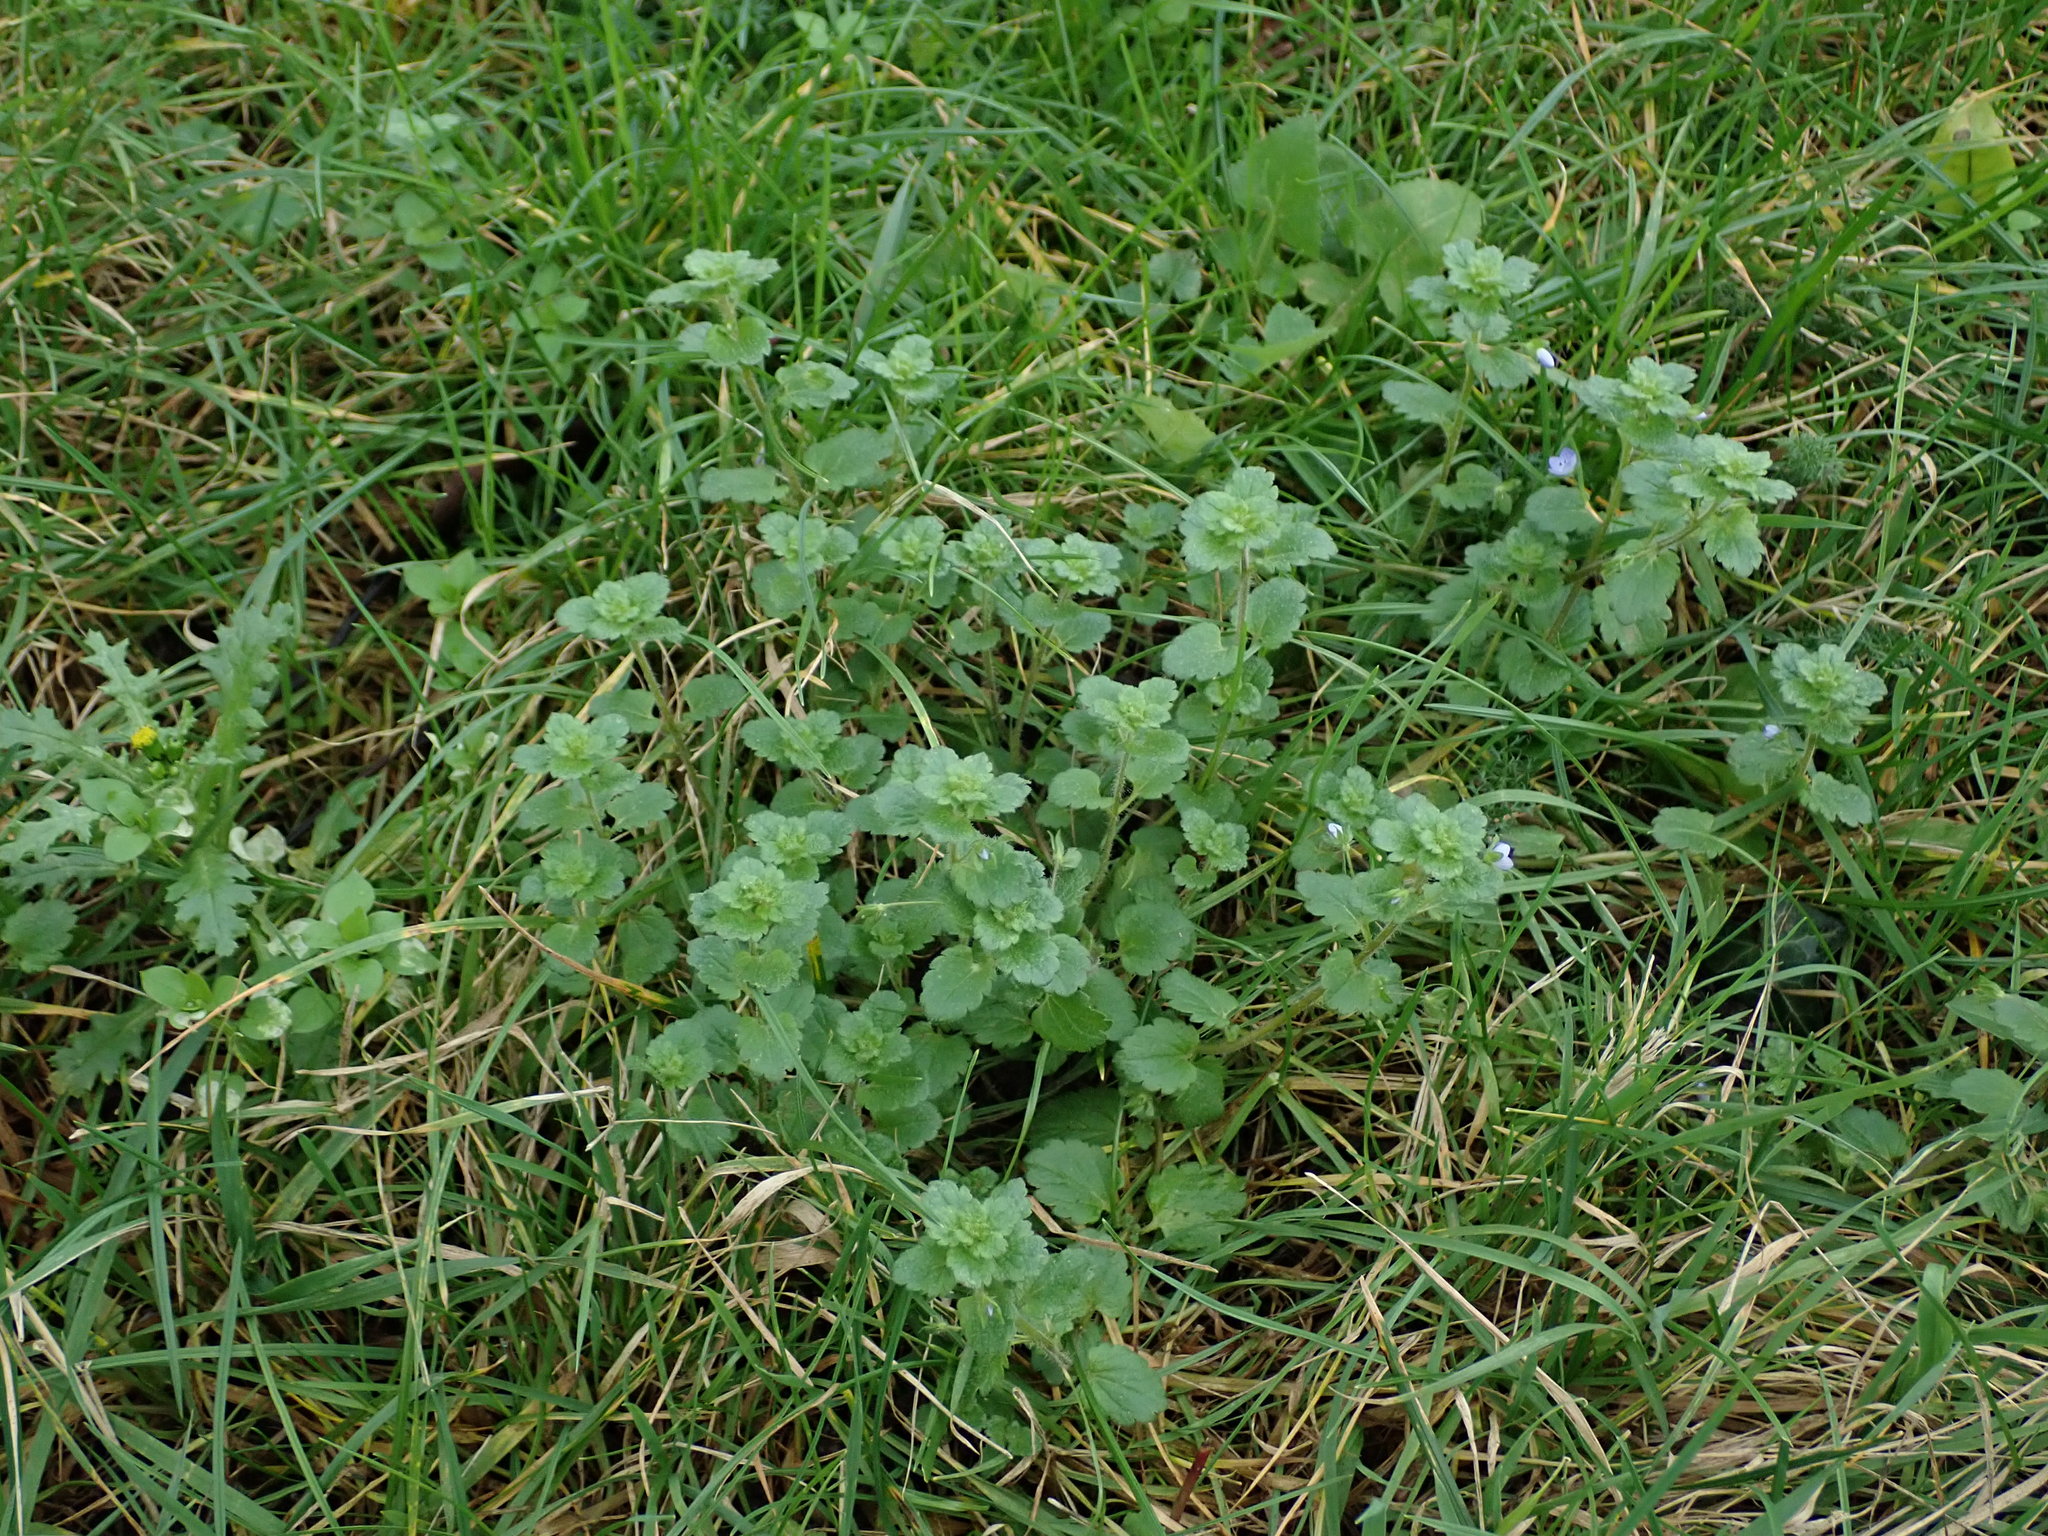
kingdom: Plantae
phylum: Tracheophyta
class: Magnoliopsida
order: Lamiales
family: Plantaginaceae
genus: Veronica
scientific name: Veronica persica
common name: Common field-speedwell
